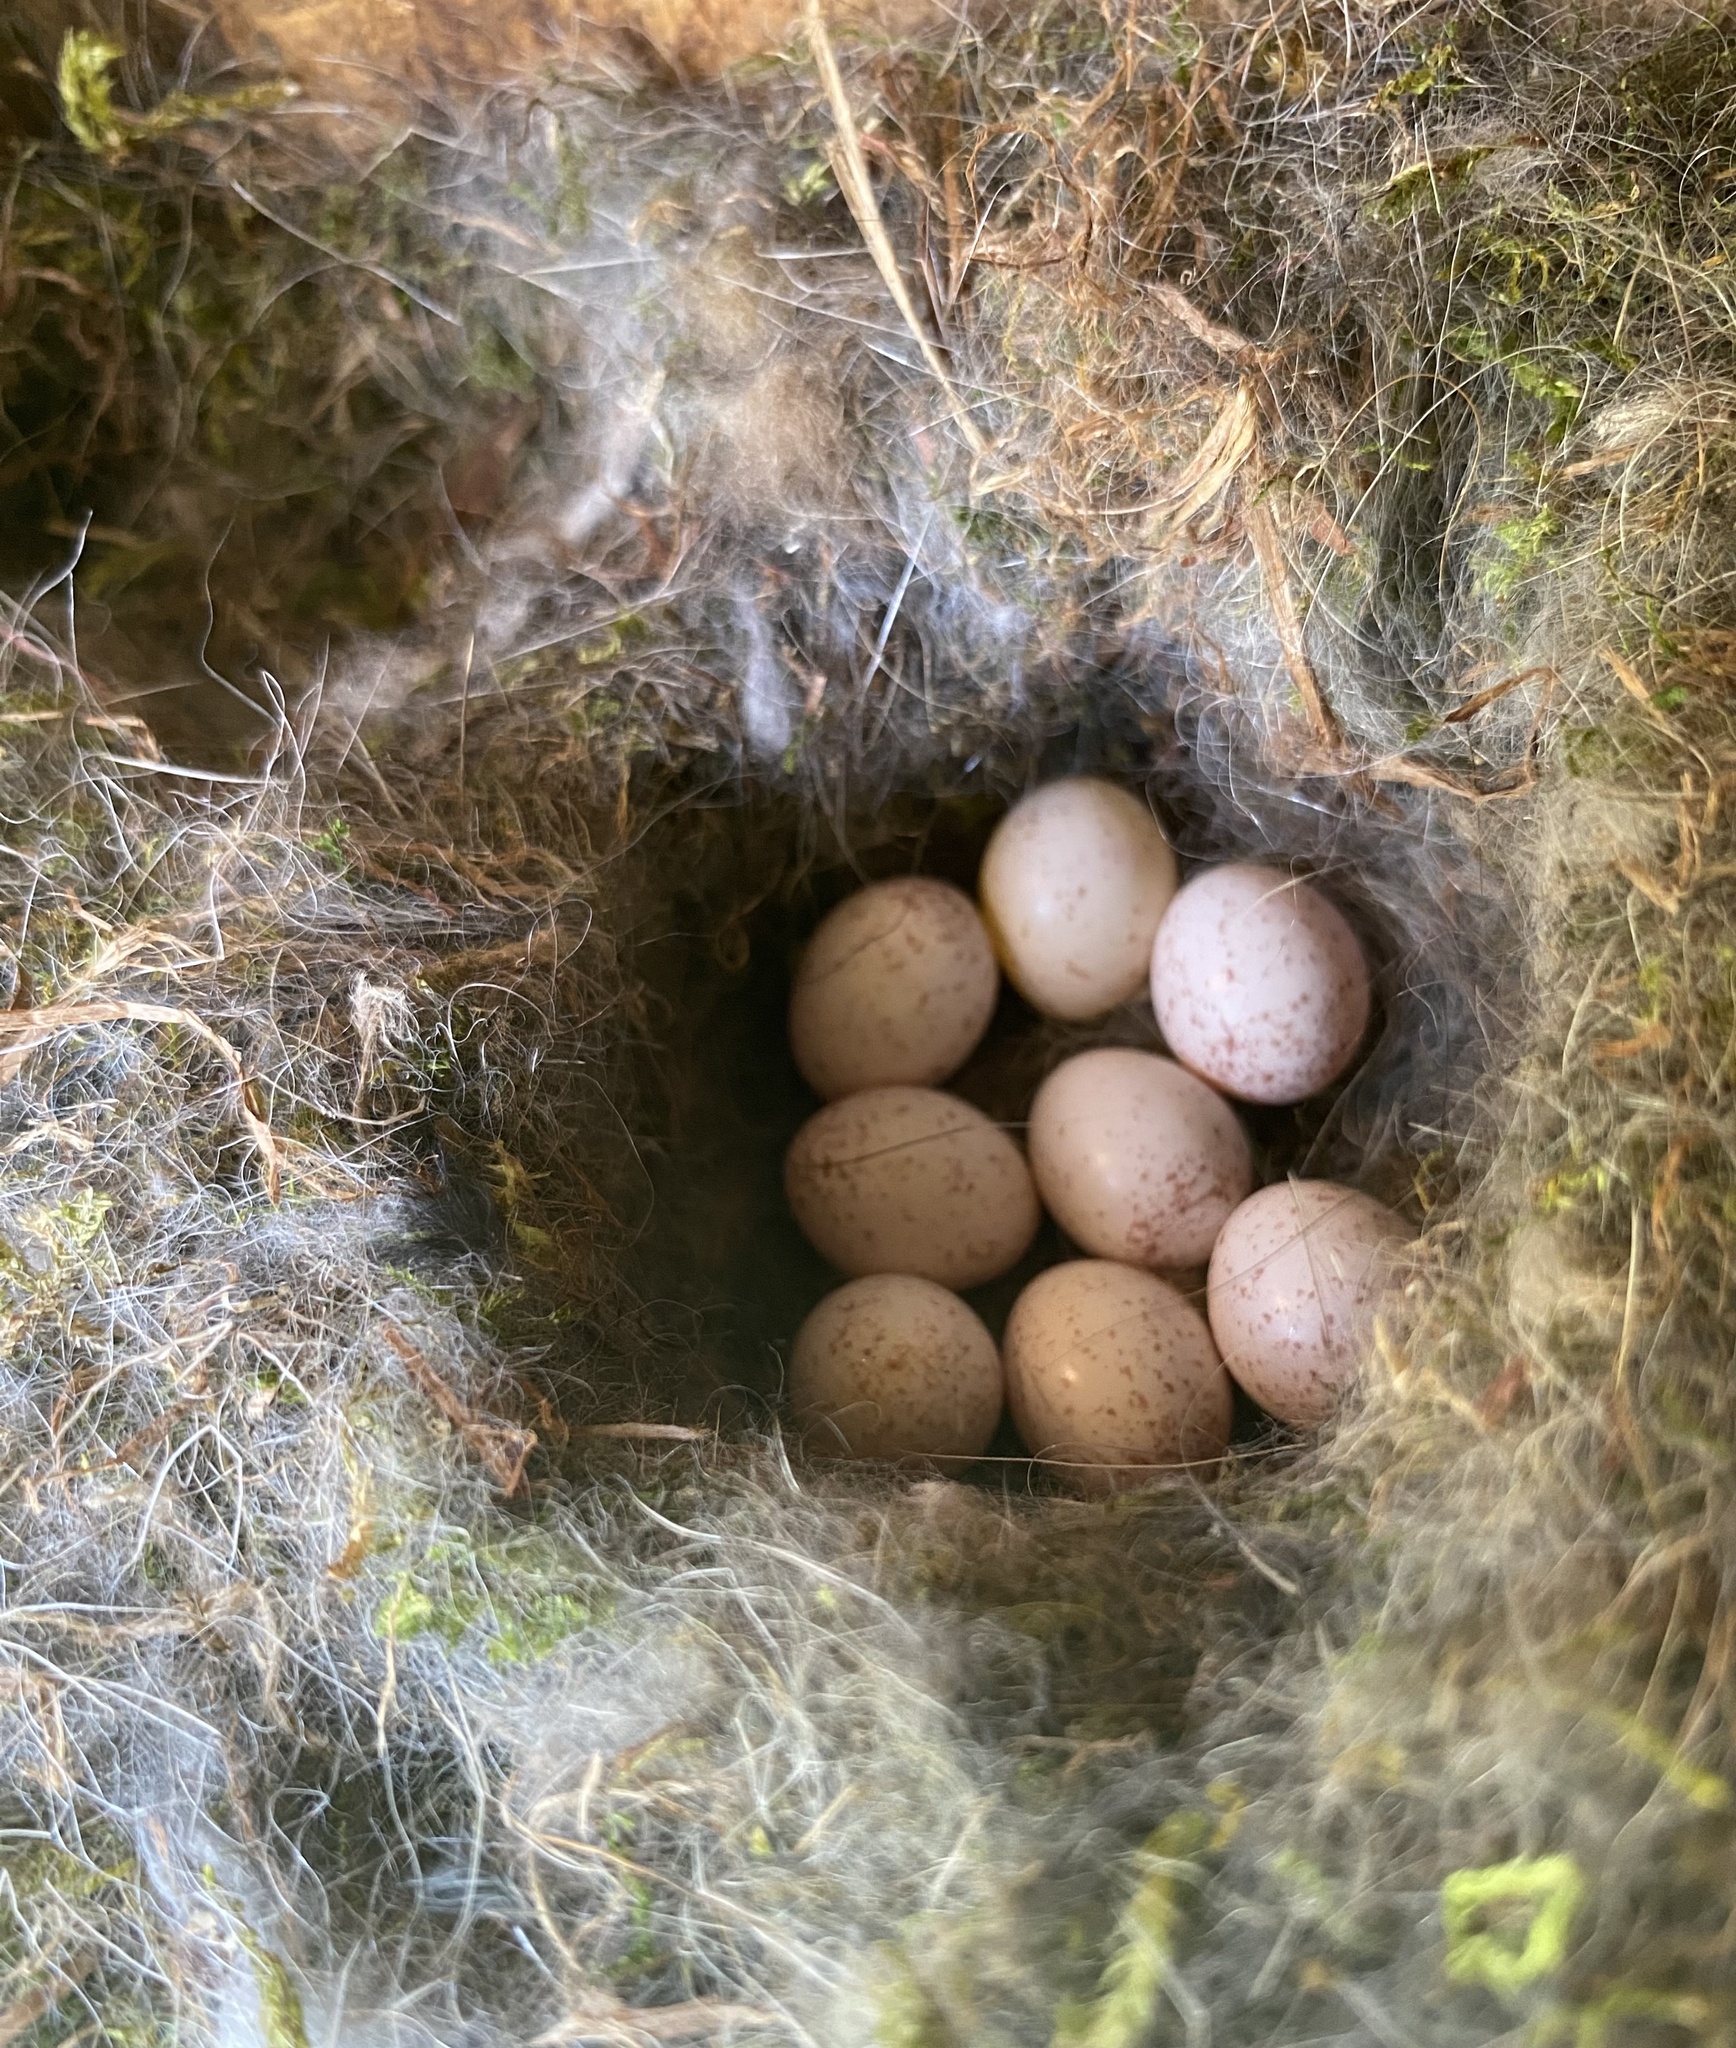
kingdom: Animalia
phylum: Chordata
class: Aves
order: Passeriformes
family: Paridae
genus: Poecile
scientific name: Poecile atricapillus
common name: Black-capped chickadee
